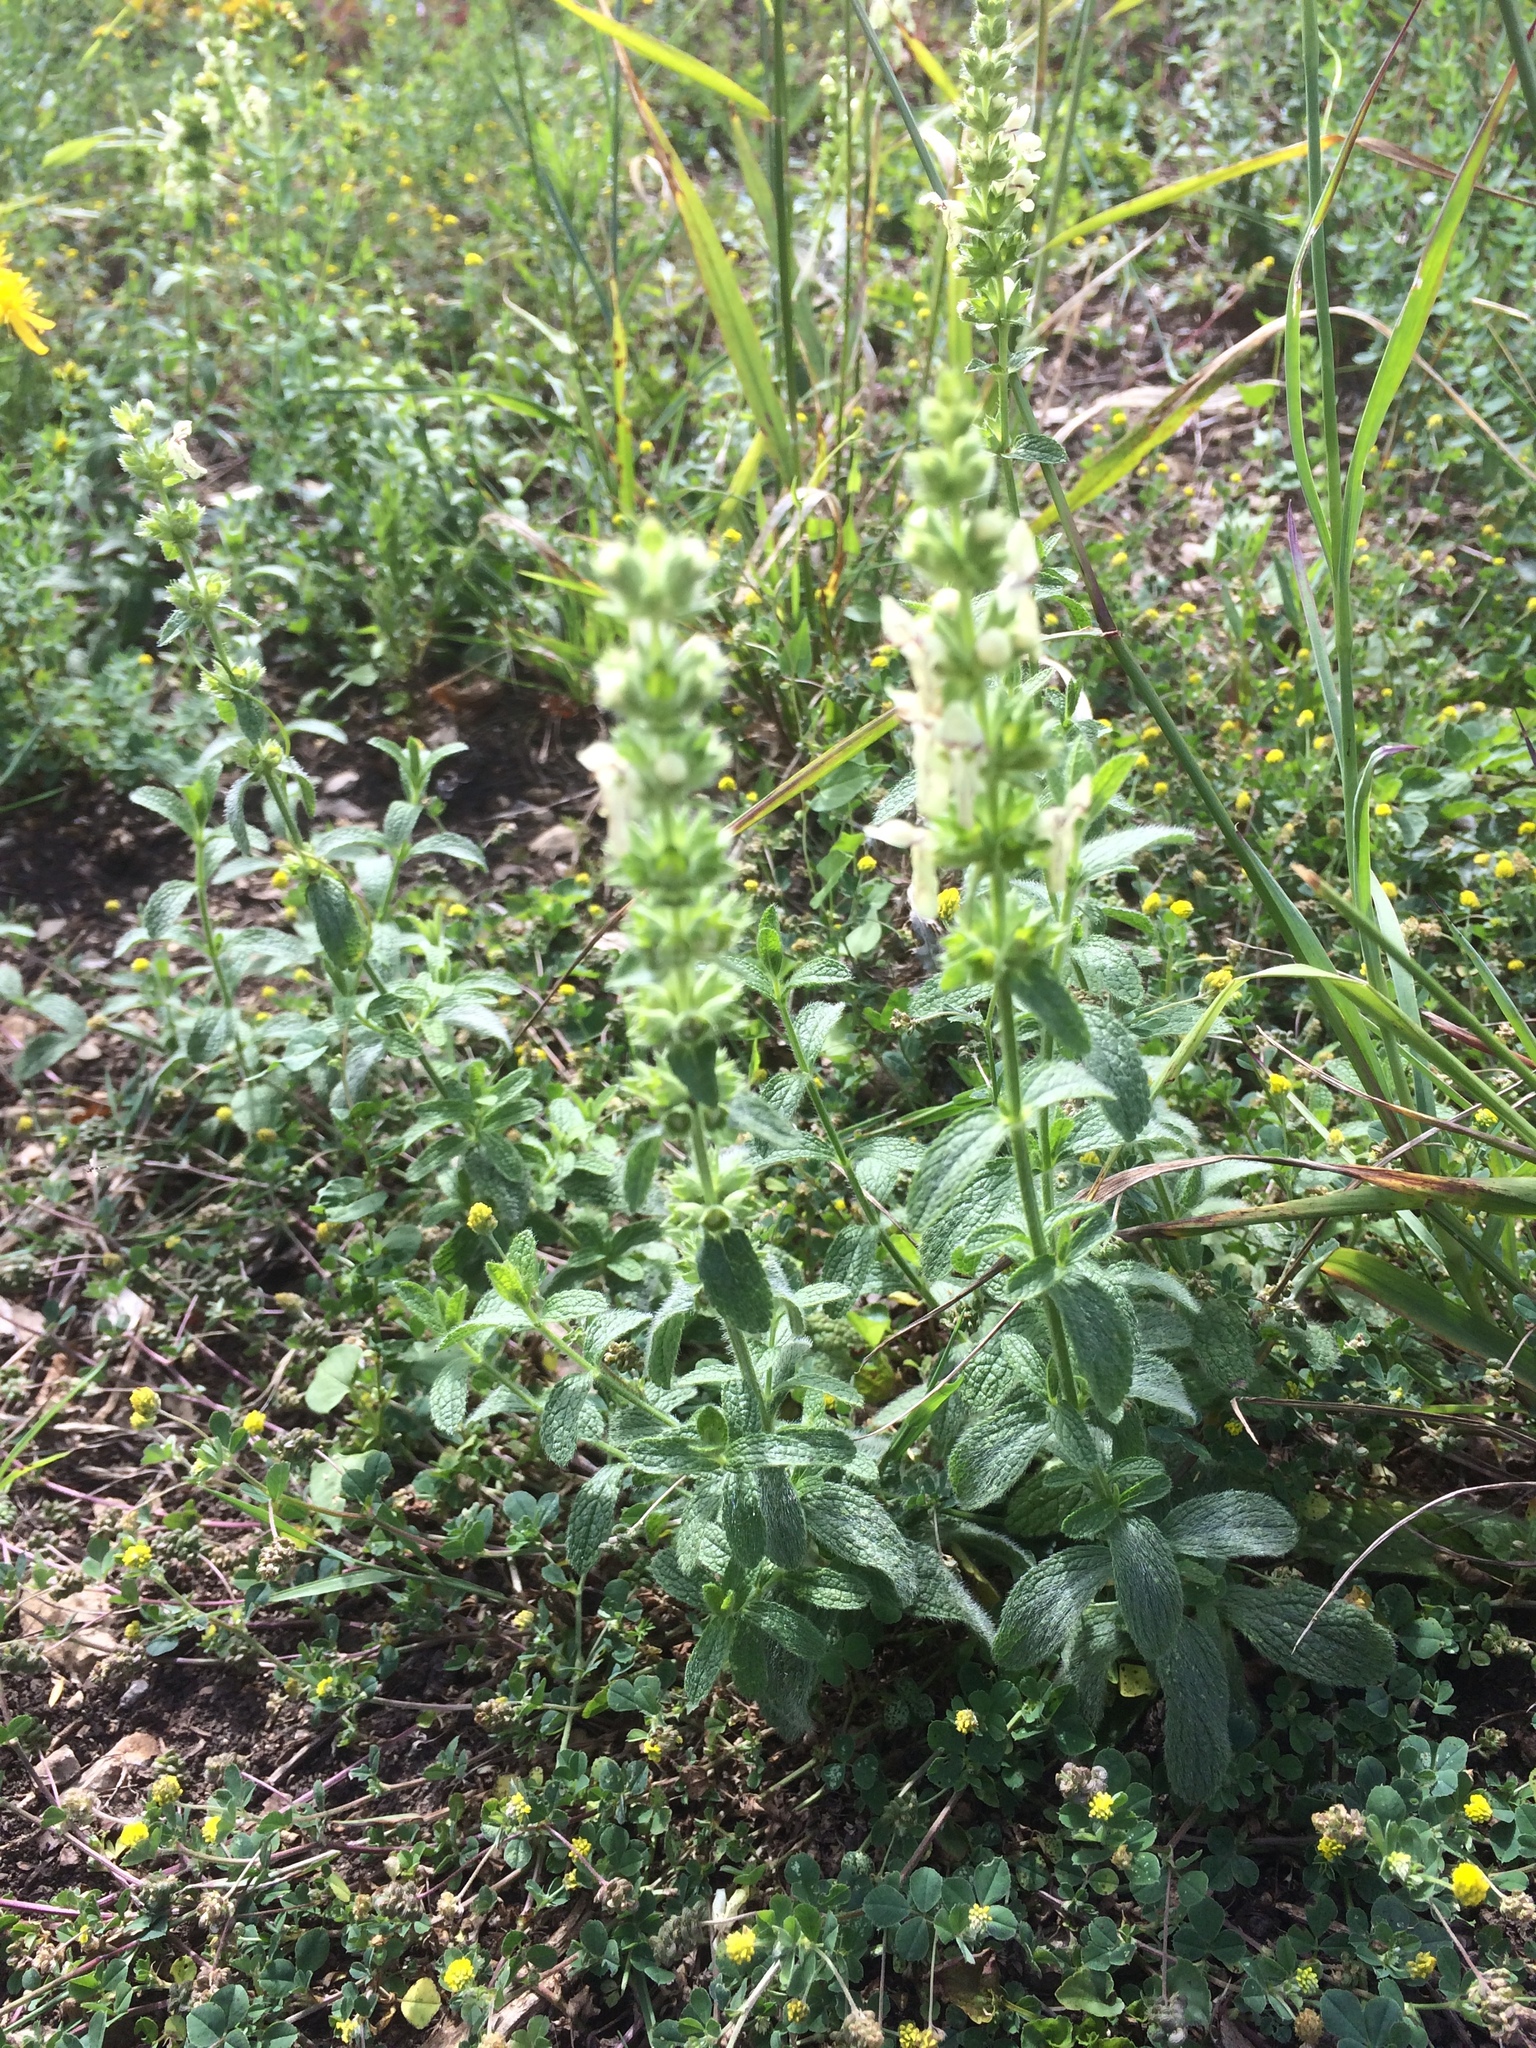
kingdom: Plantae
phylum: Tracheophyta
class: Magnoliopsida
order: Lamiales
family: Lamiaceae
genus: Stachys
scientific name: Stachys recta
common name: Perennial yellow-woundwort
